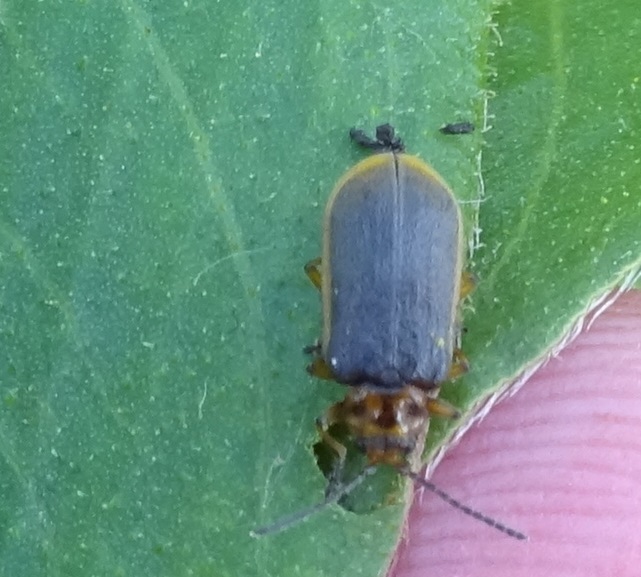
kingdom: Animalia
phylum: Arthropoda
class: Insecta
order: Coleoptera
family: Chrysomelidae
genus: Galerucella
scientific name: Galerucella nymphaeae
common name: Leaf beetle
